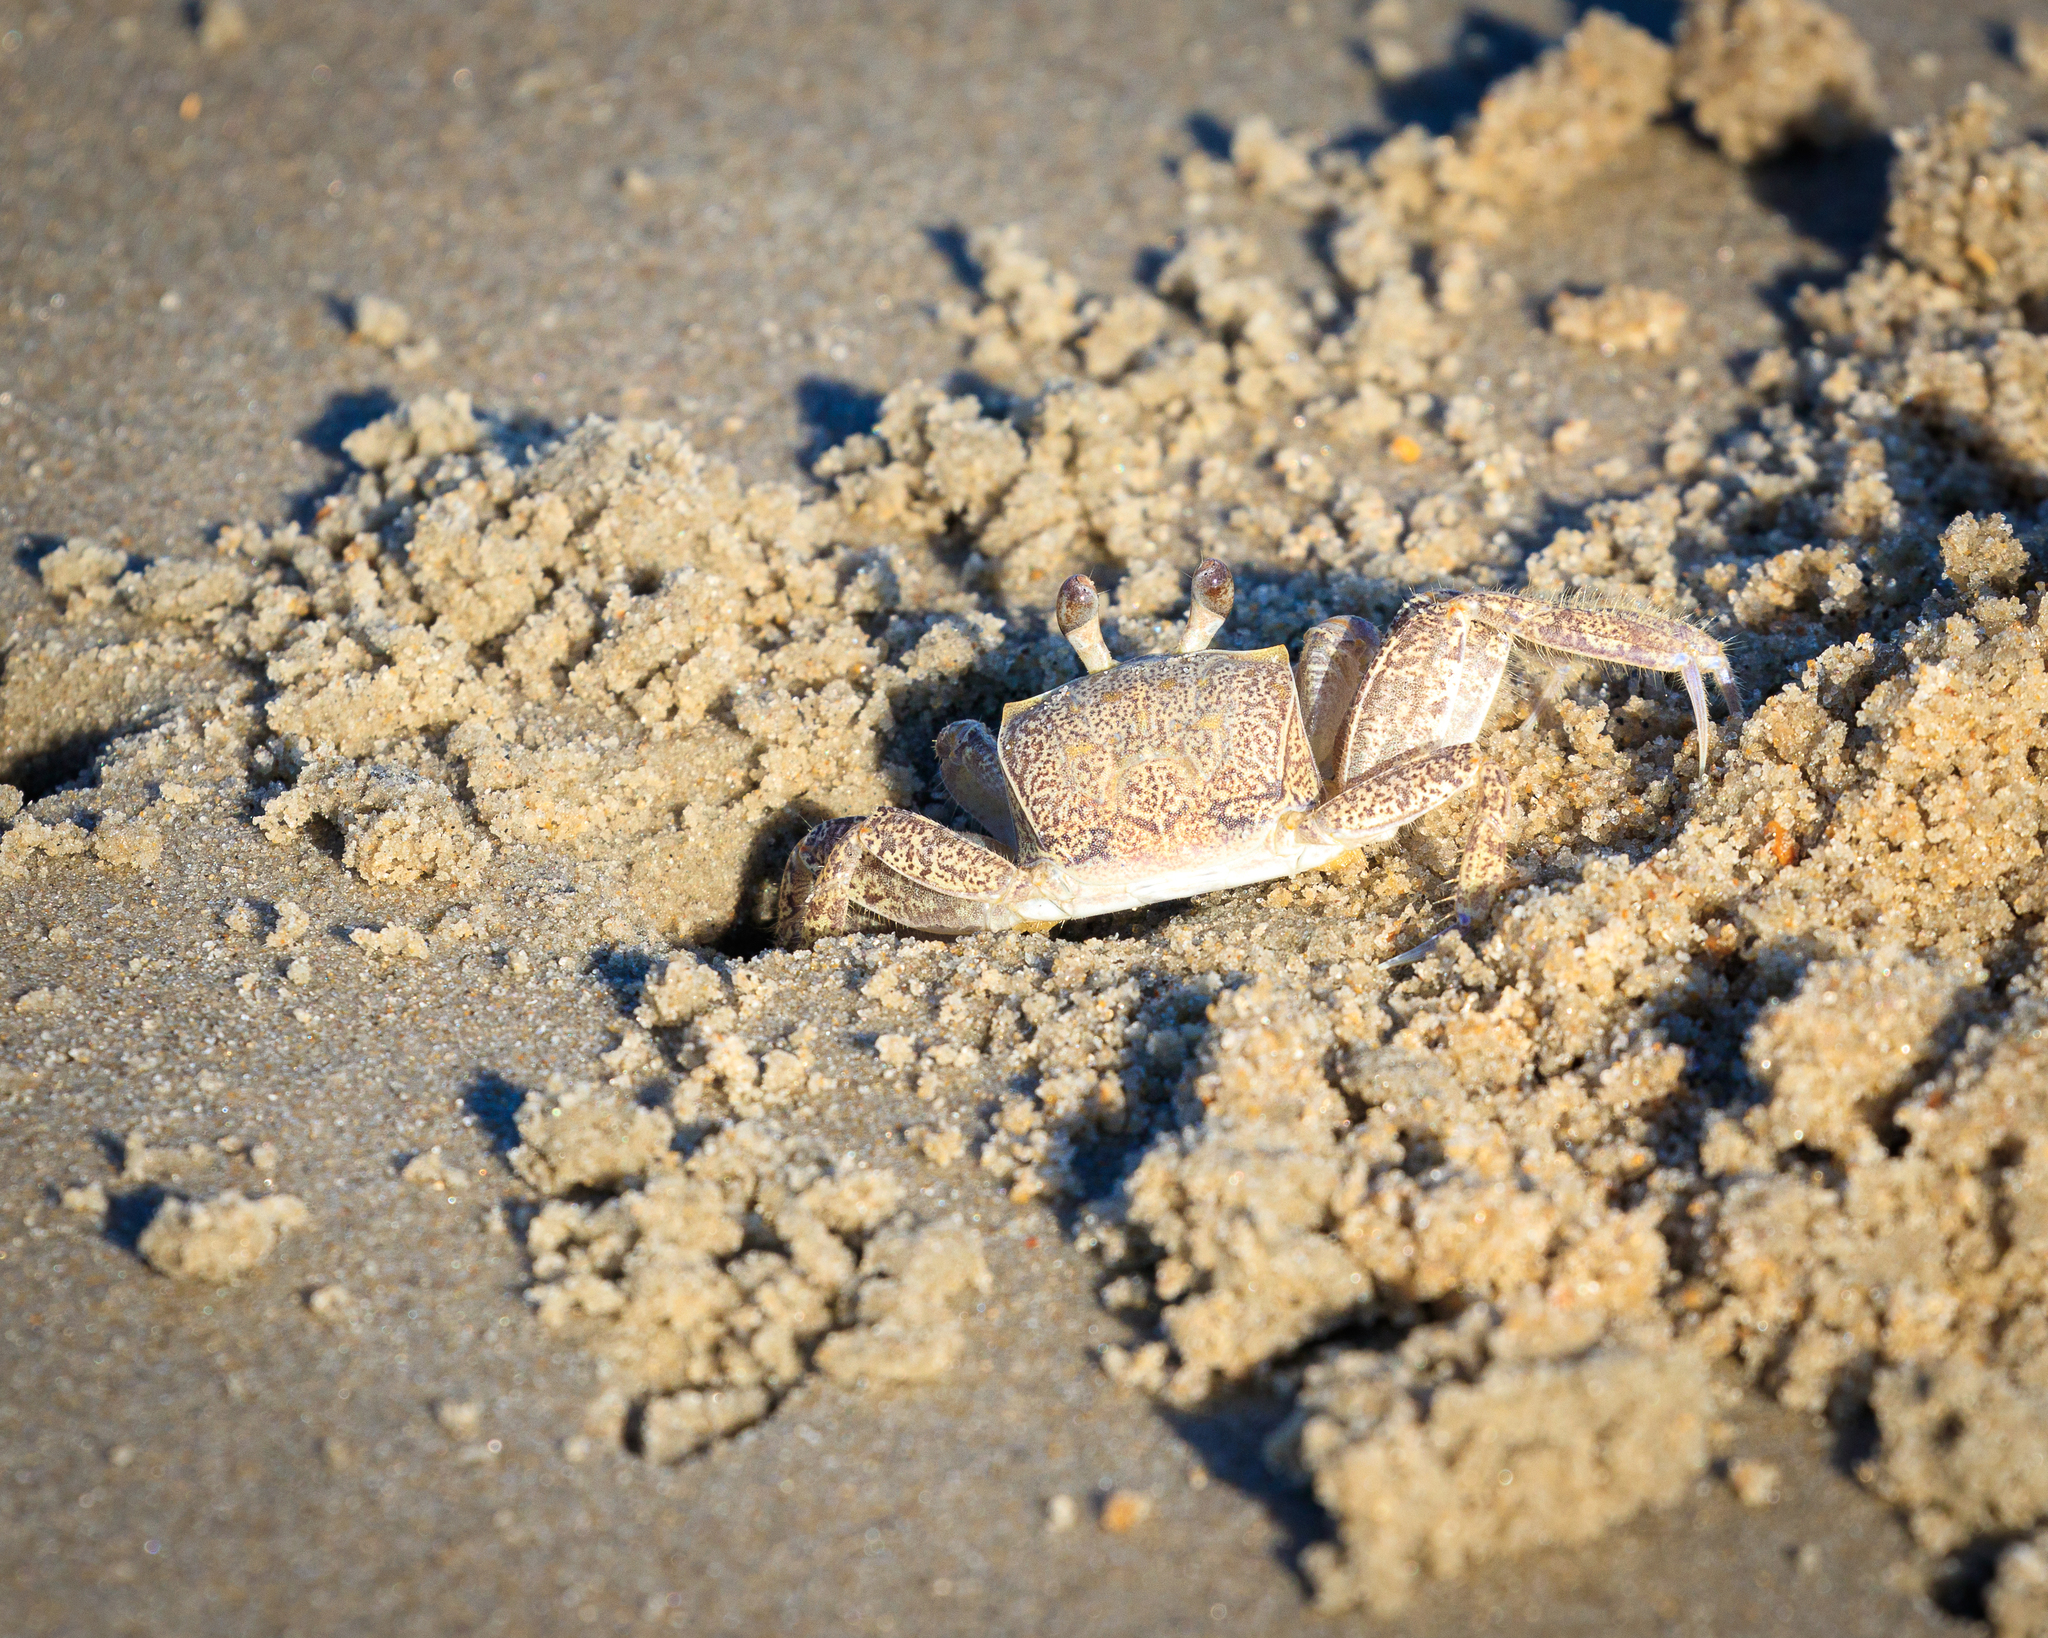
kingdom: Animalia
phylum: Arthropoda
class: Malacostraca
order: Decapoda
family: Ocypodidae
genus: Ocypode
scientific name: Ocypode quadrata
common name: Ghost crab
